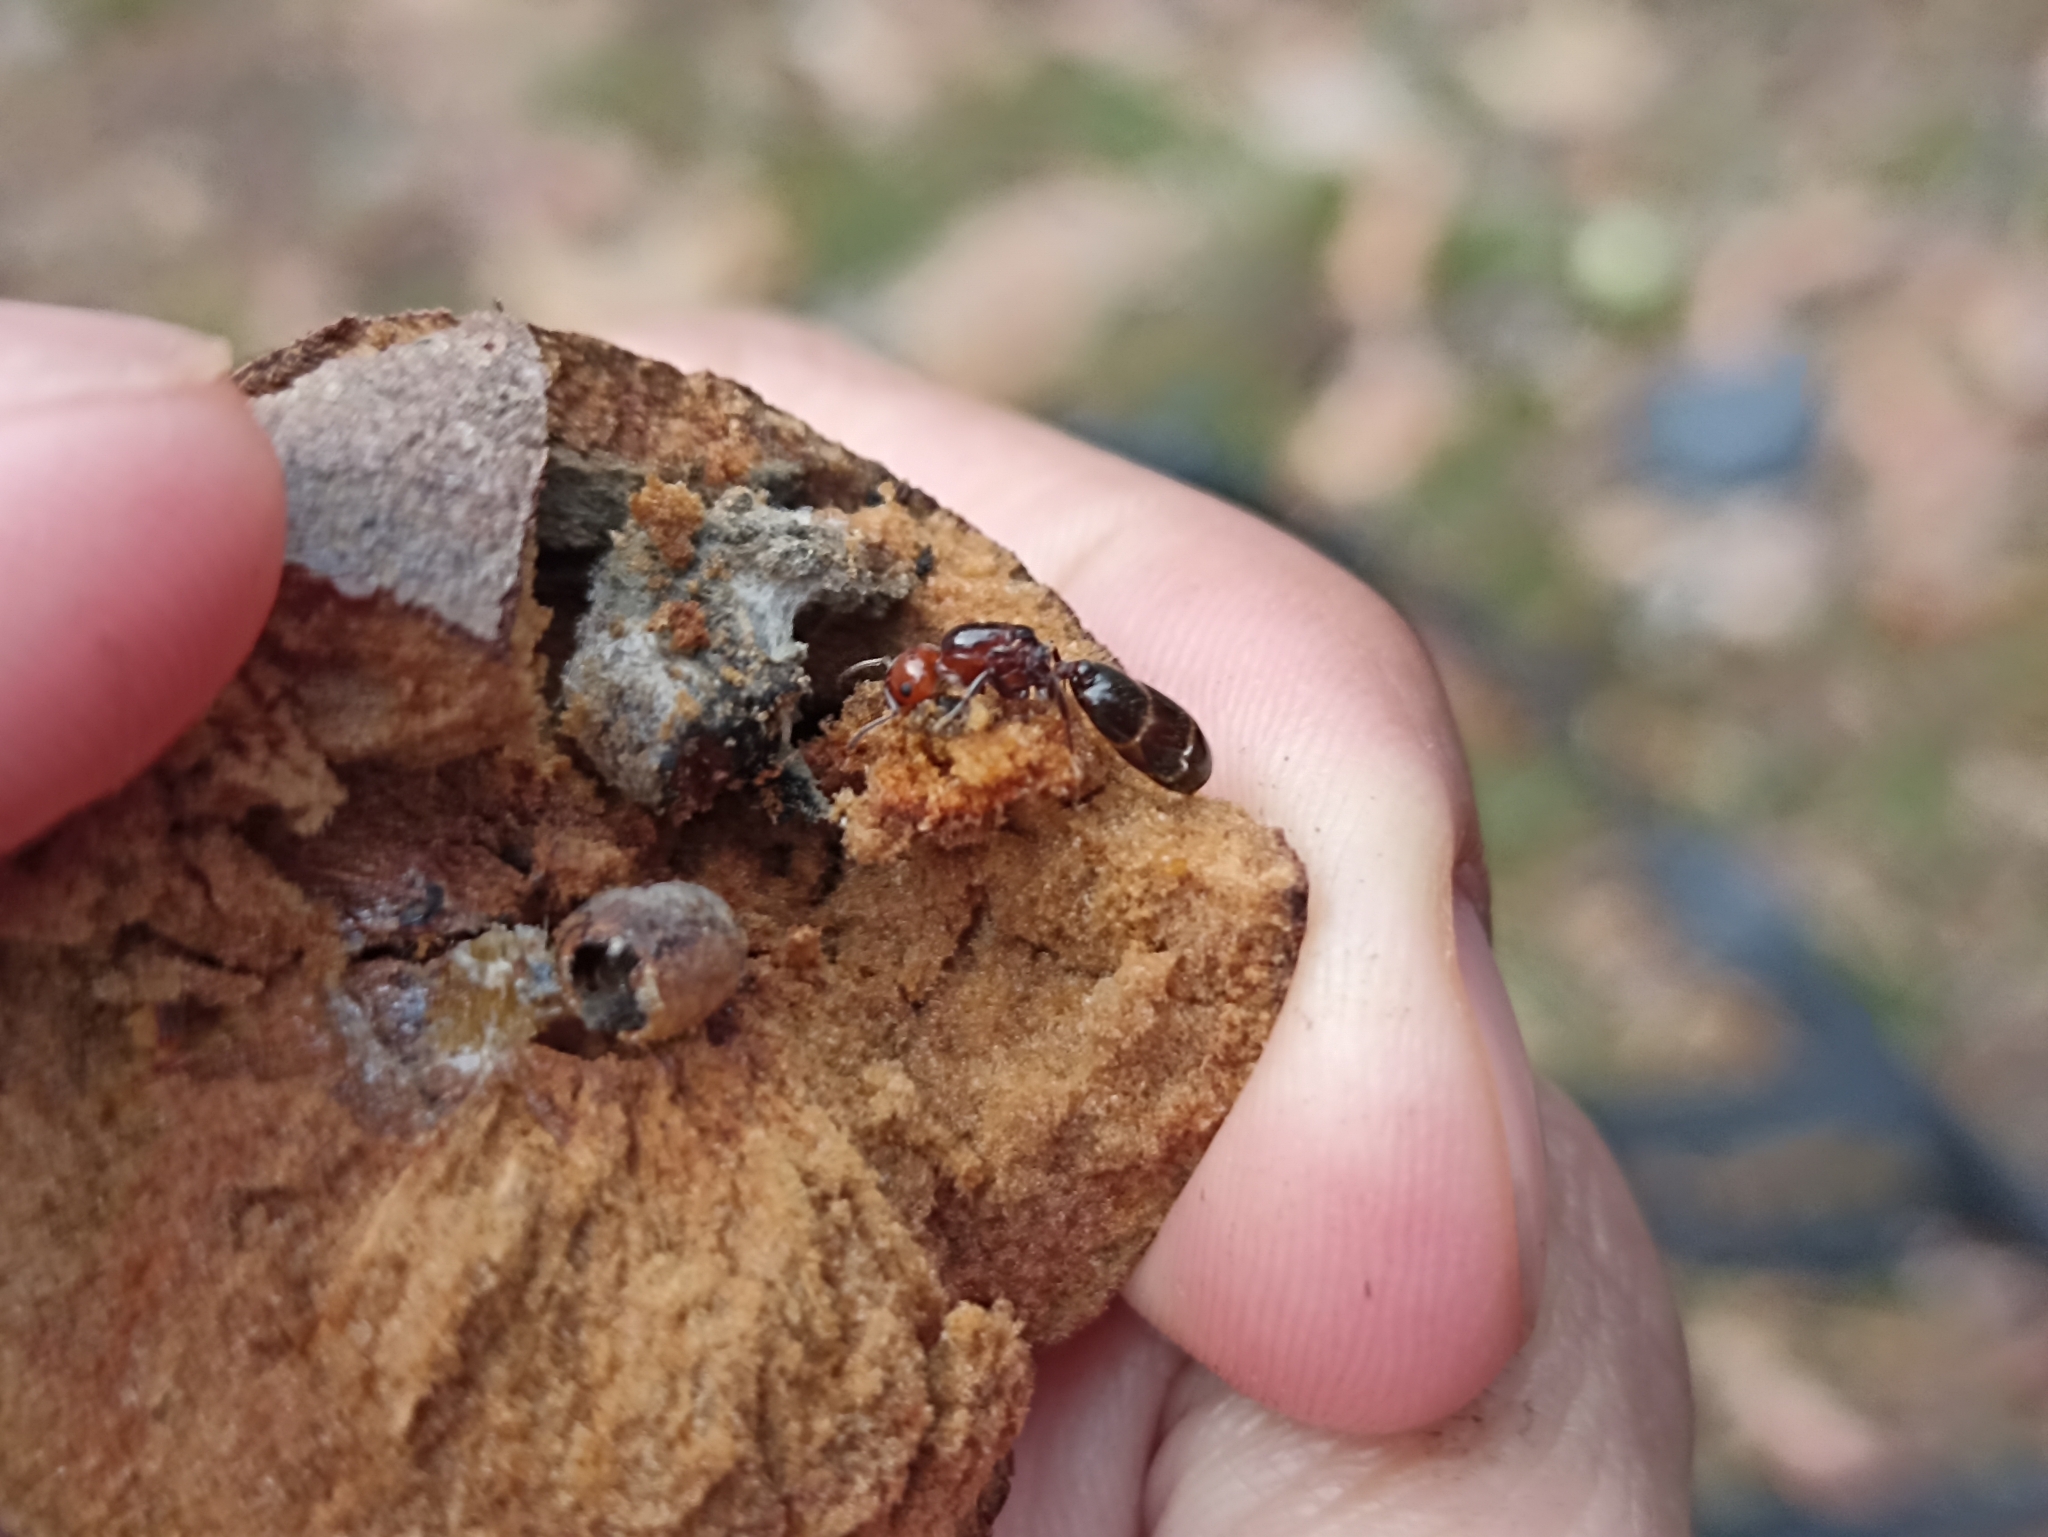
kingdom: Animalia
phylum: Arthropoda
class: Insecta
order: Hymenoptera
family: Formicidae
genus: Crematogaster
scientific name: Crematogaster scutellaris
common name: Fourmi du liège
